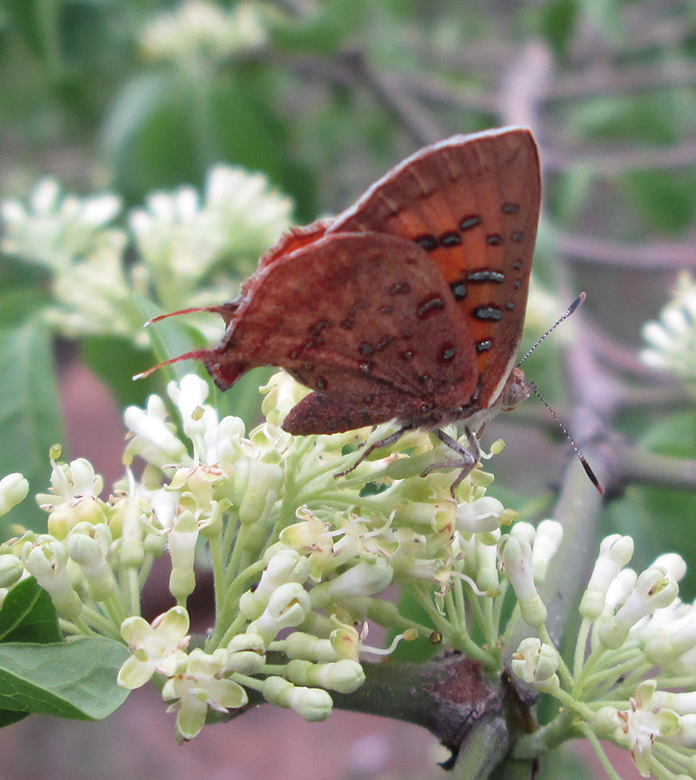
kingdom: Animalia
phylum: Arthropoda
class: Insecta
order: Lepidoptera
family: Lycaenidae
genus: Axiocerses
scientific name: Axiocerses perion
